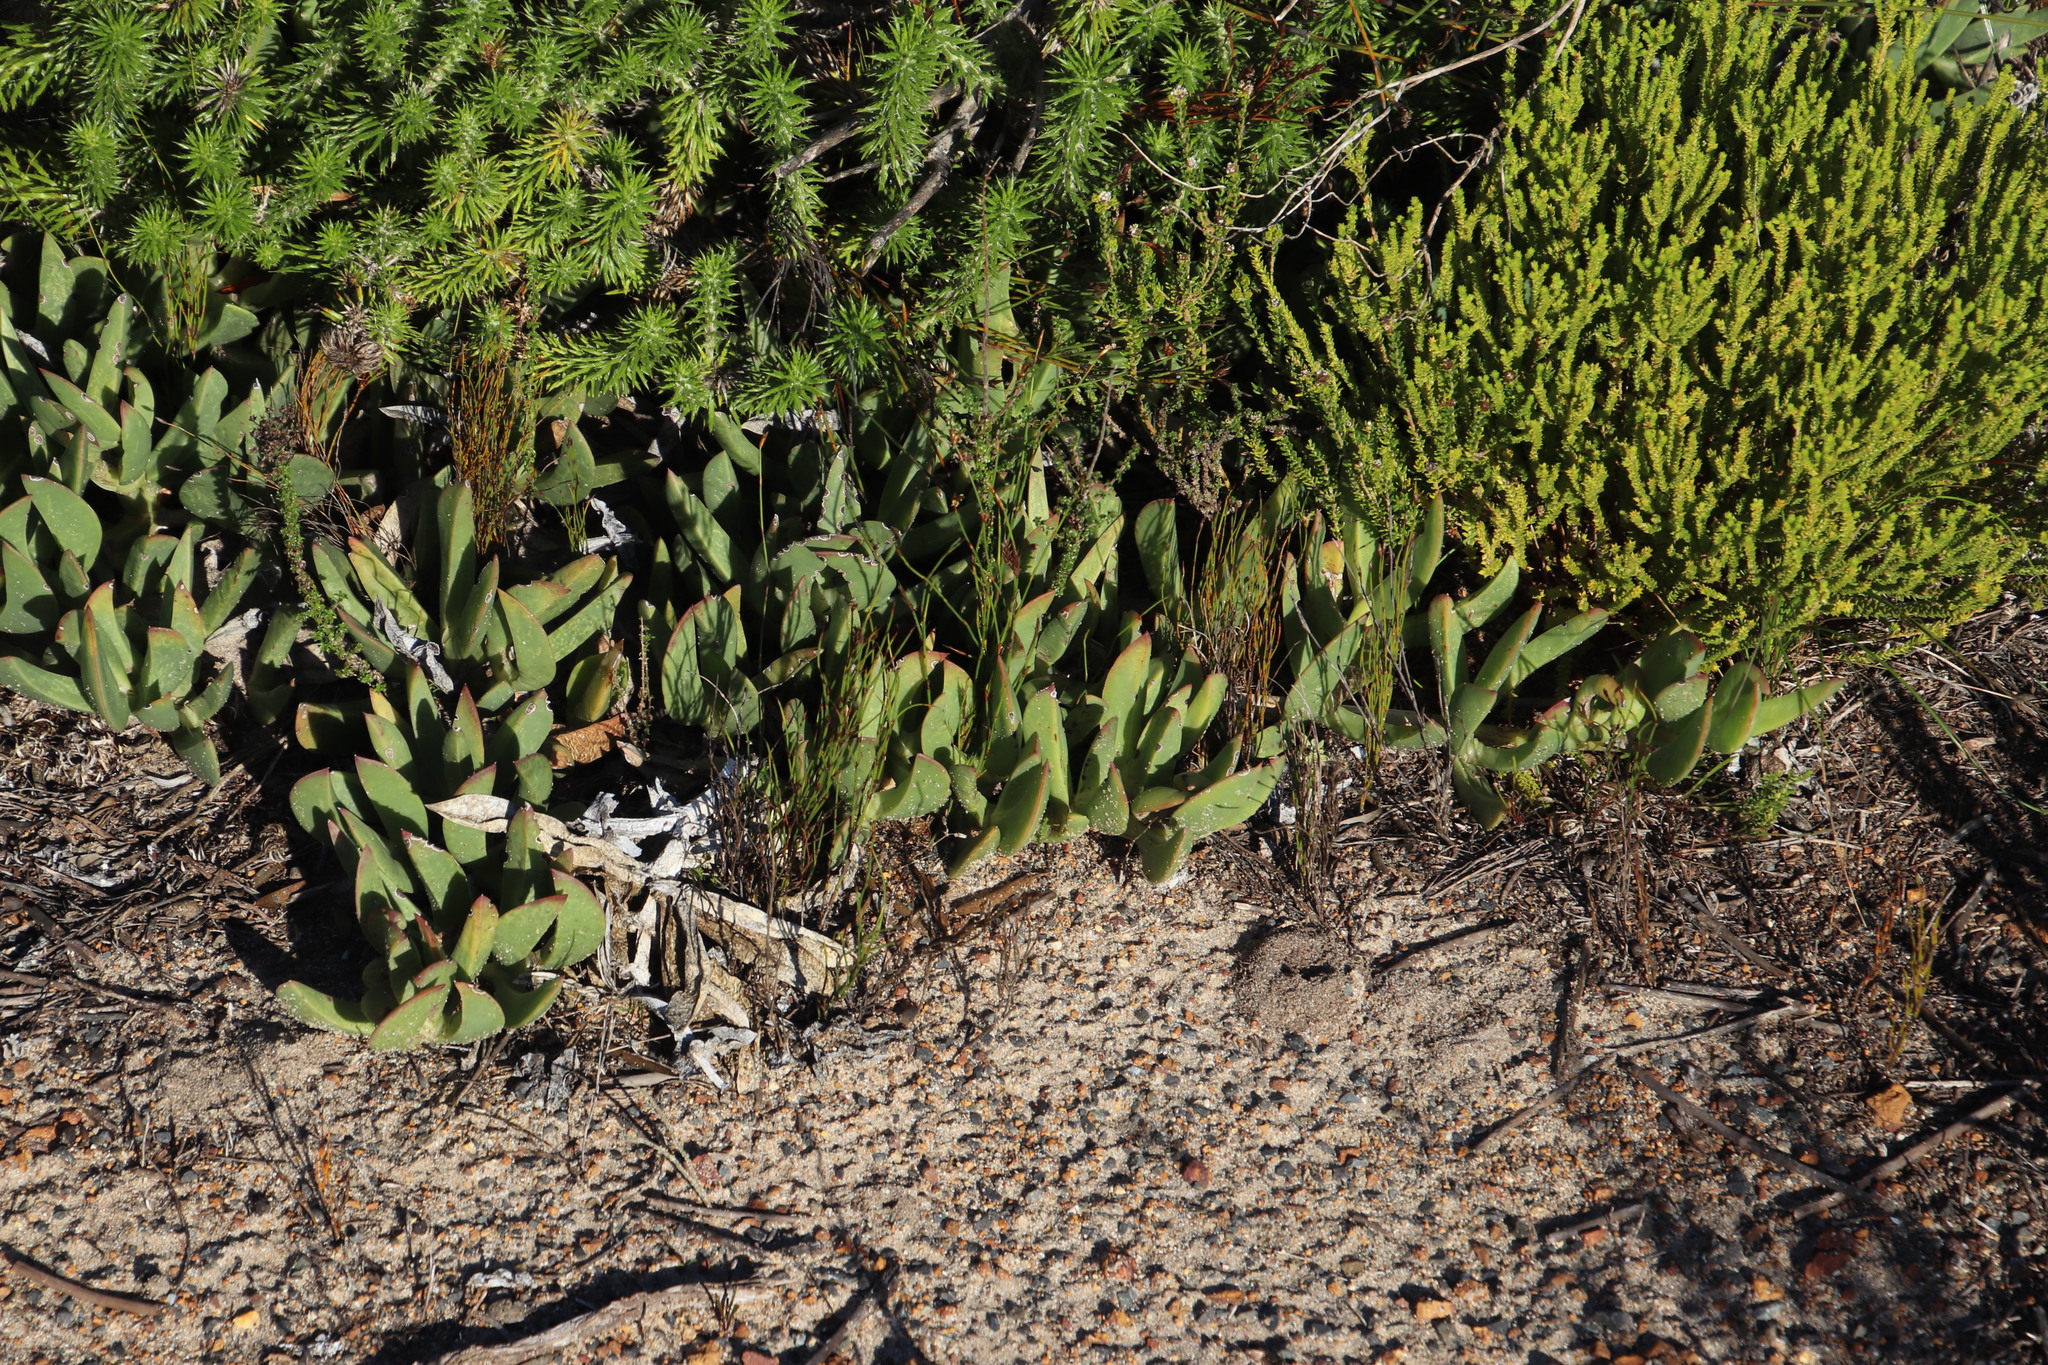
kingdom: Plantae
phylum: Tracheophyta
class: Magnoliopsida
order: Caryophyllales
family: Aizoaceae
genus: Carpobrotus
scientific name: Carpobrotus acinaciformis
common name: Sally-my-handsome
